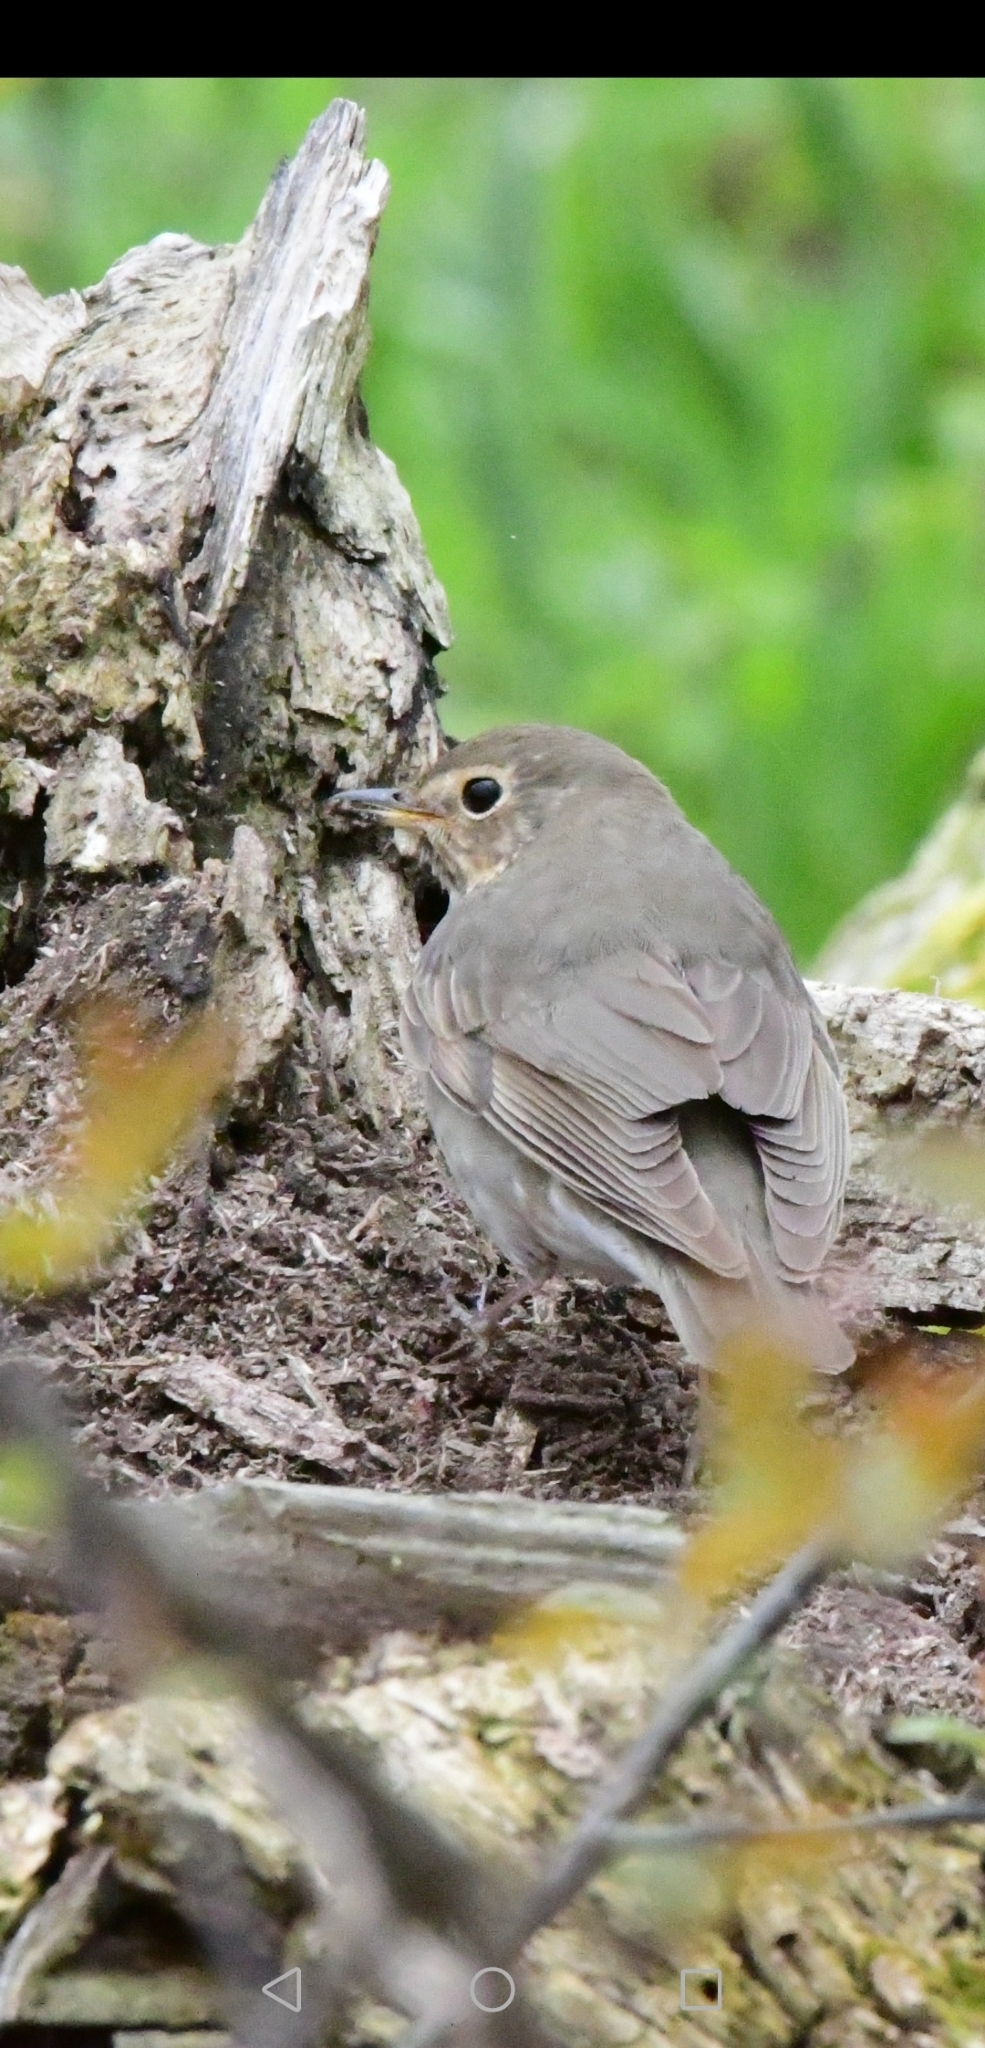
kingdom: Animalia
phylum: Chordata
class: Aves
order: Passeriformes
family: Turdidae
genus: Catharus
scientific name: Catharus ustulatus
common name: Swainson's thrush
